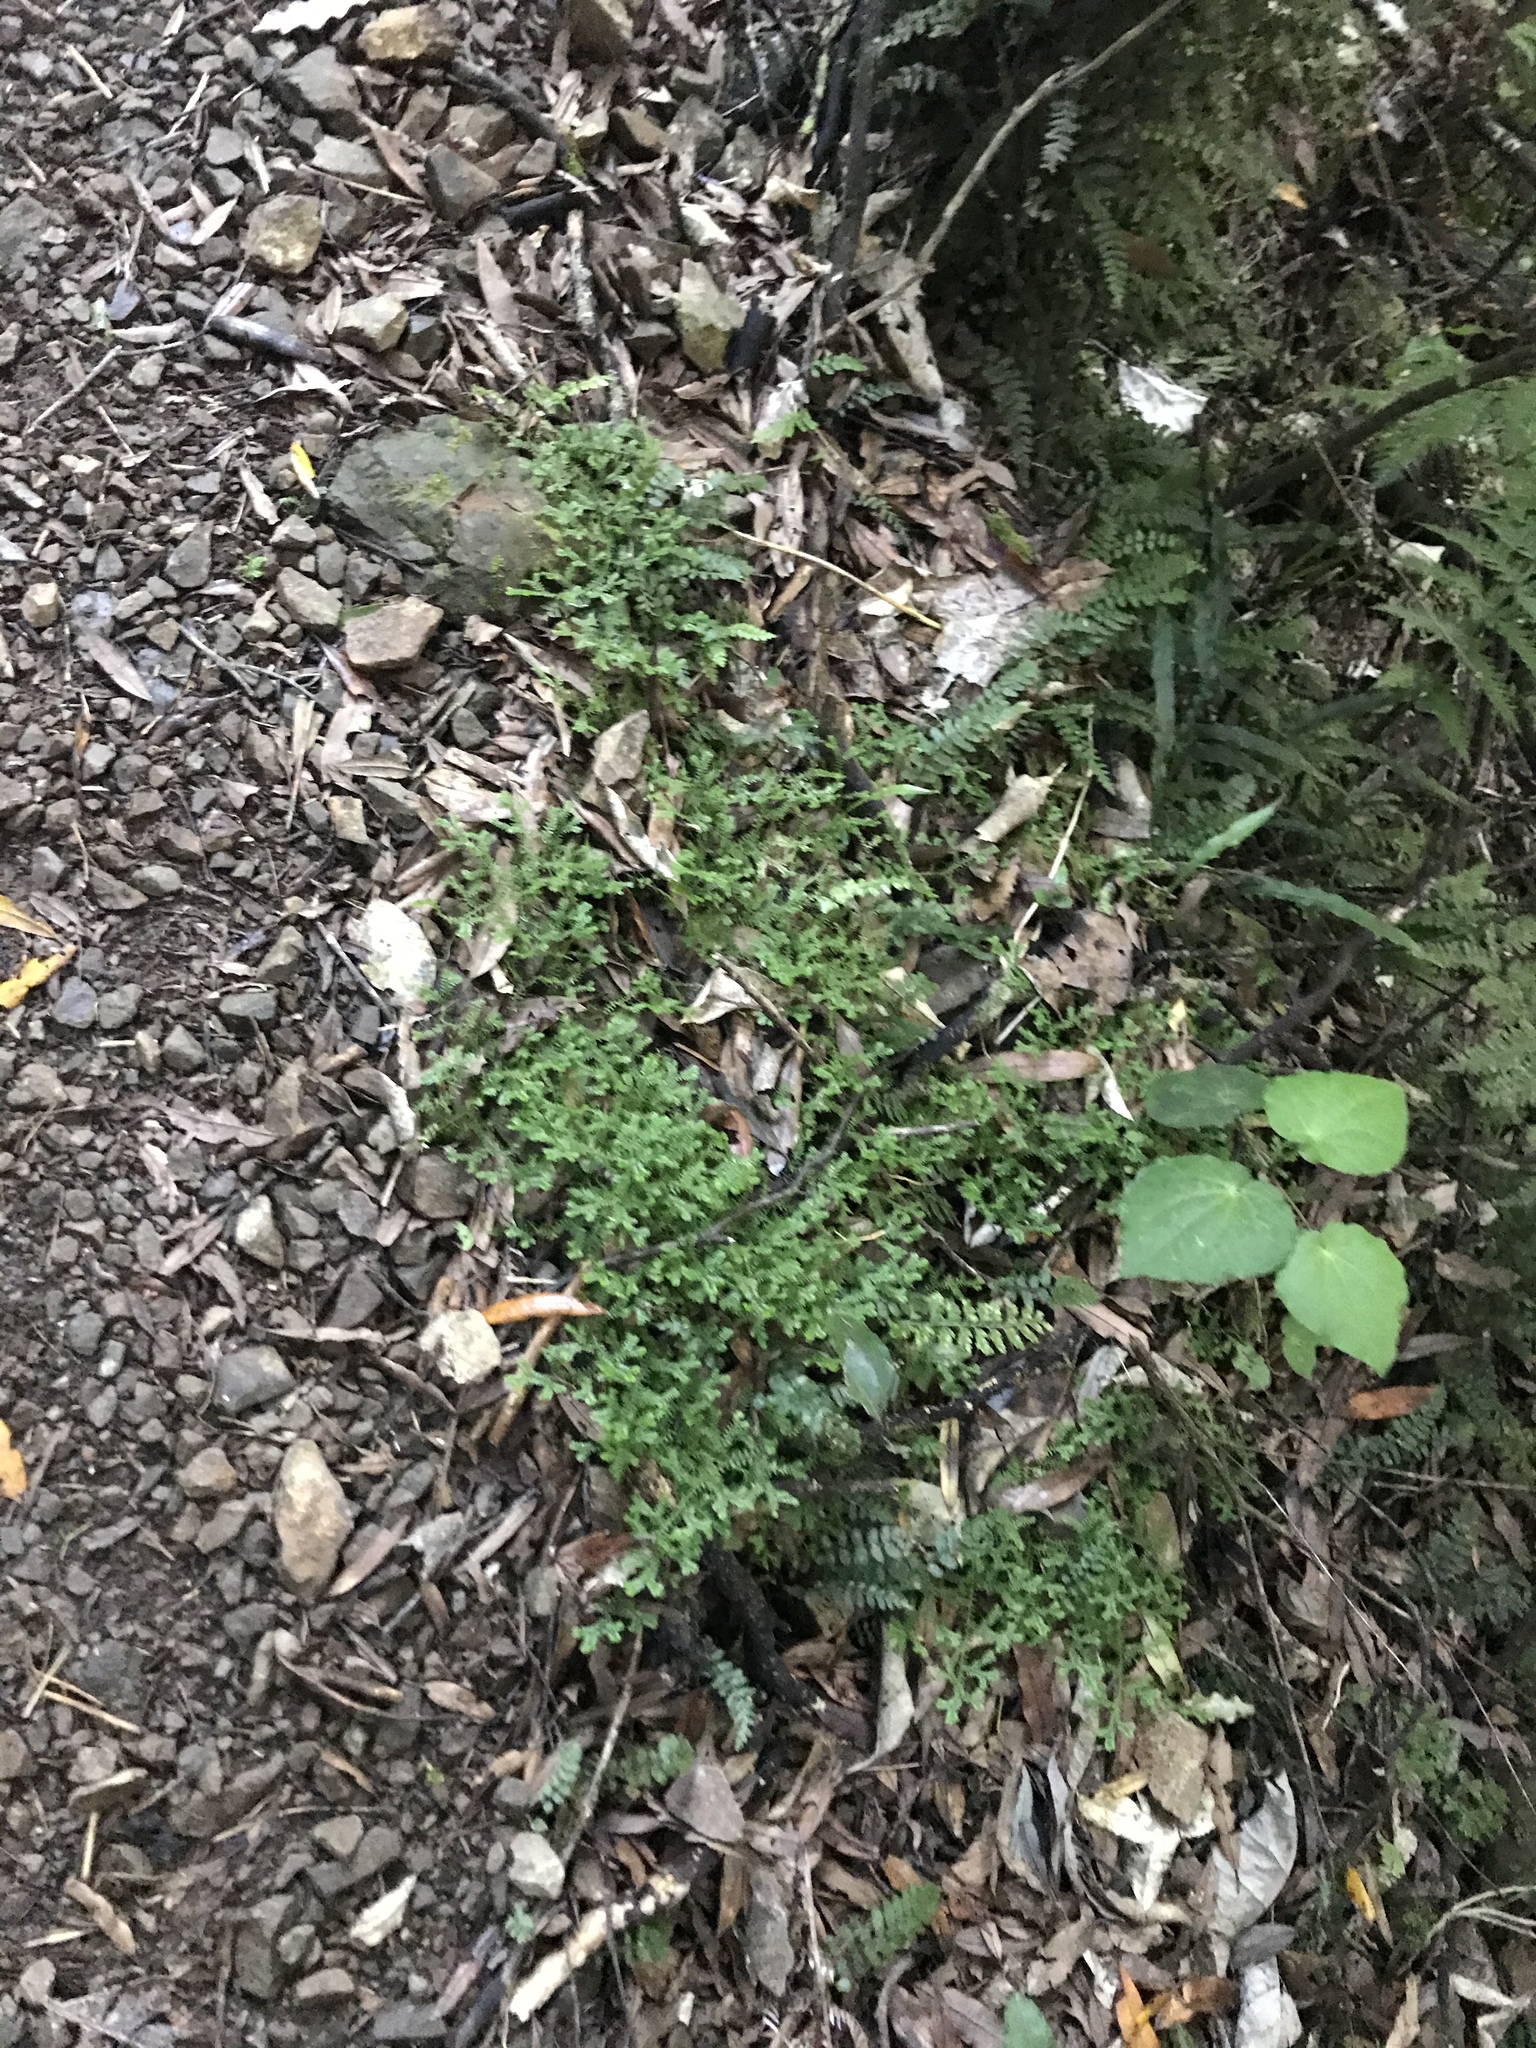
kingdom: Plantae
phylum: Tracheophyta
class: Lycopodiopsida
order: Selaginellales
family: Selaginellaceae
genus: Selaginella
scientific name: Selaginella kraussiana
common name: Krauss' spikemoss
